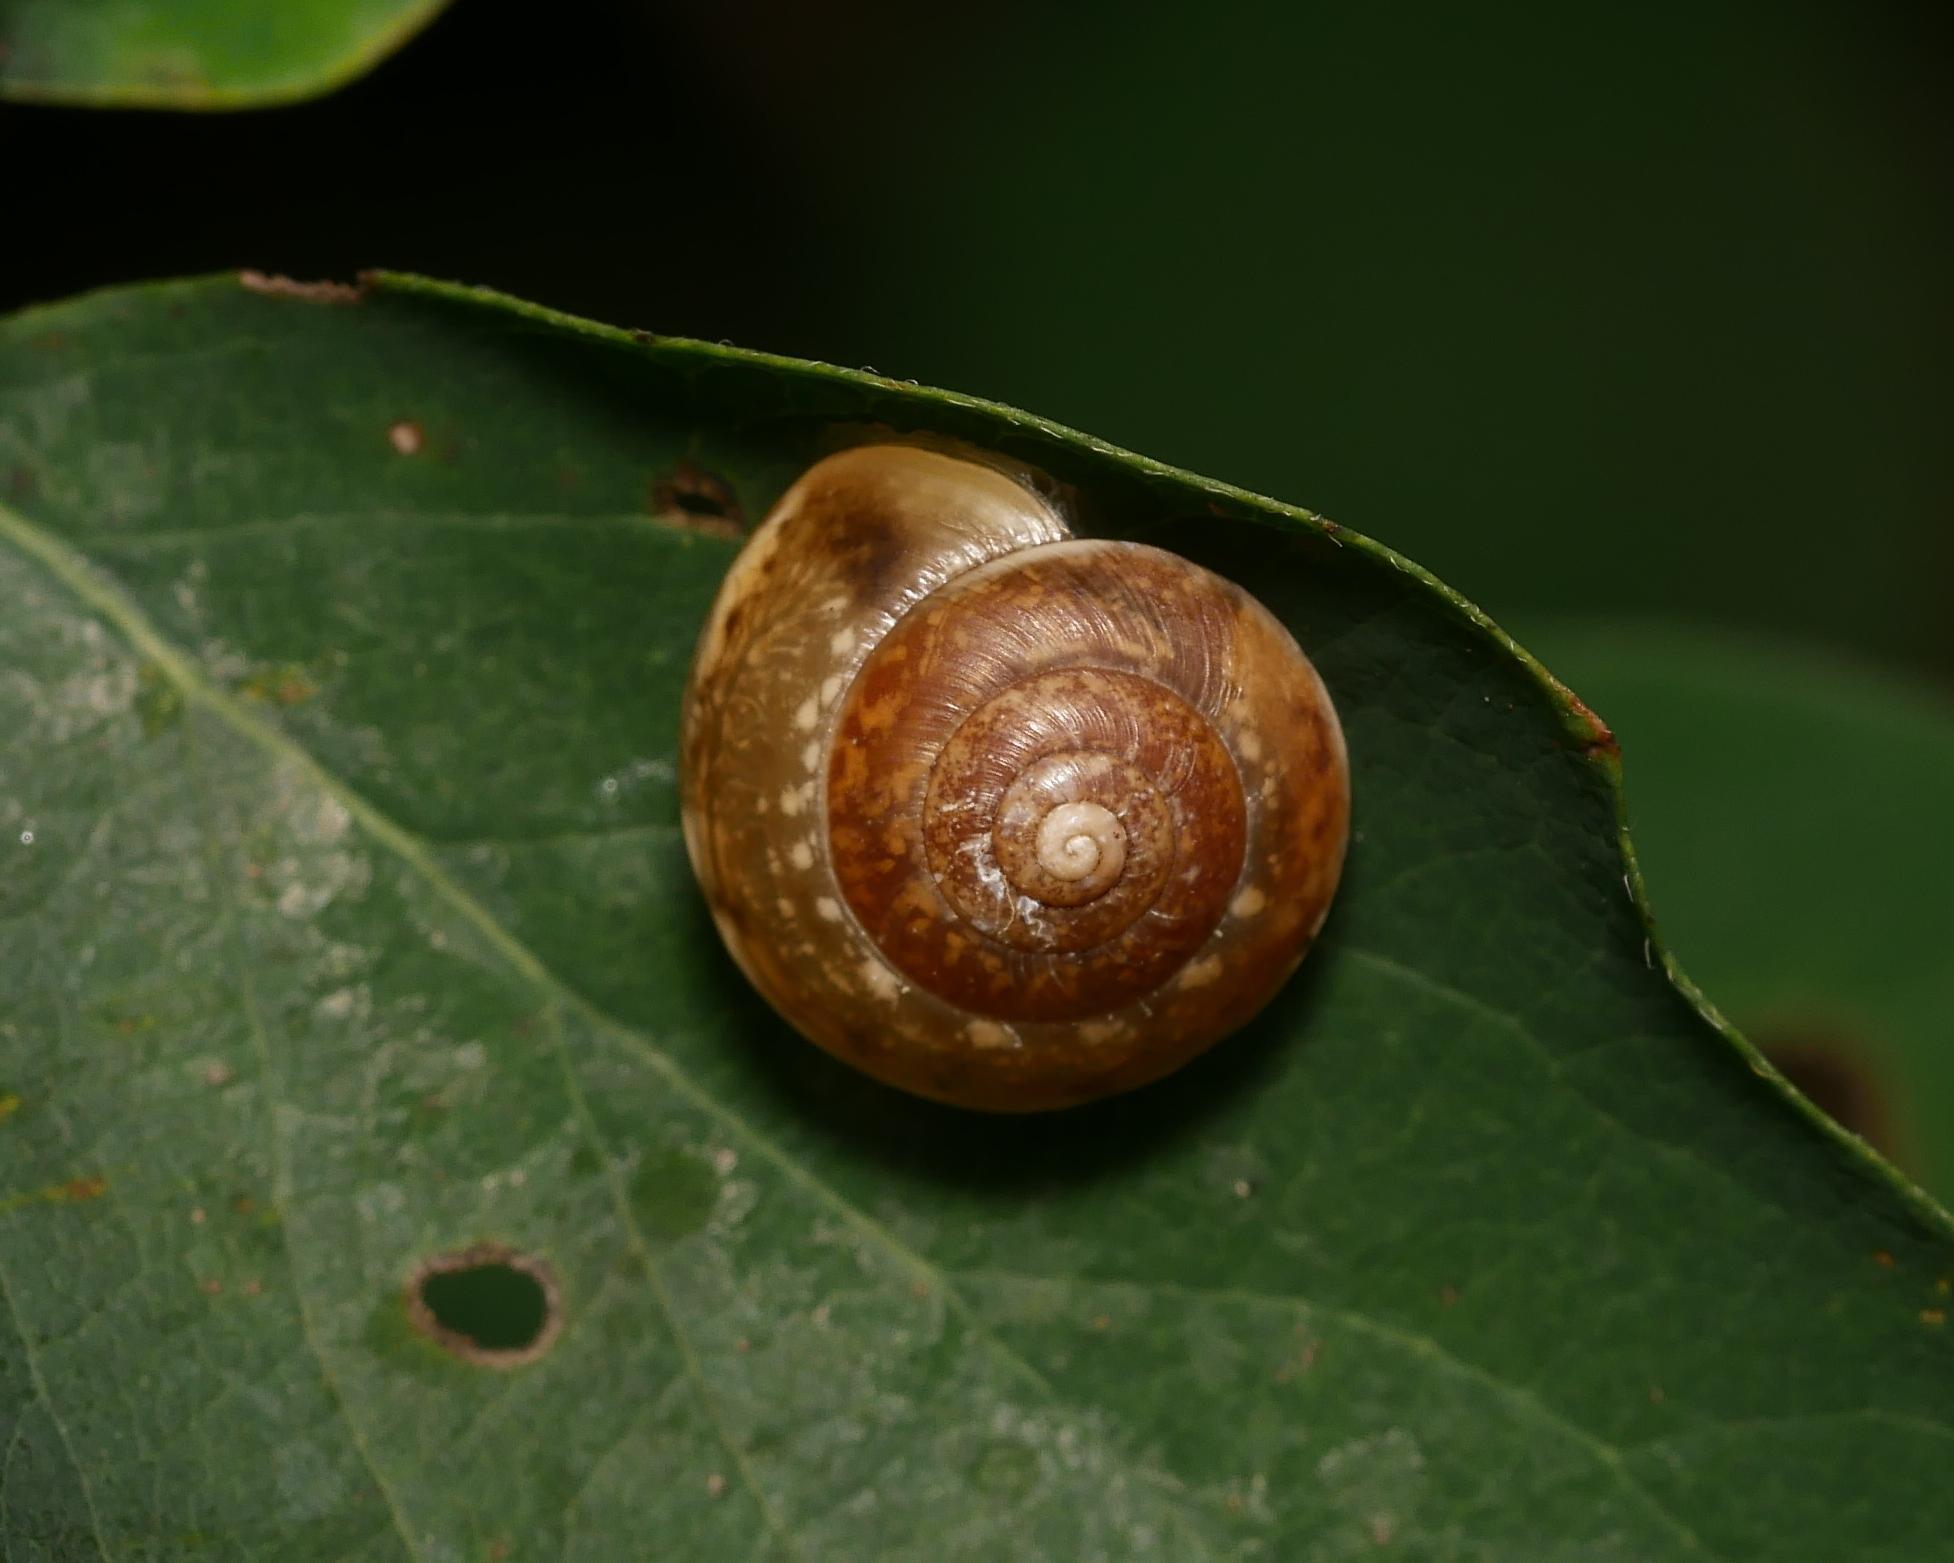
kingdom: Animalia
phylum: Mollusca
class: Gastropoda
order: Stylommatophora
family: Hygromiidae
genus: Hygromia
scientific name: Hygromia cinctella
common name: Girdled snail
